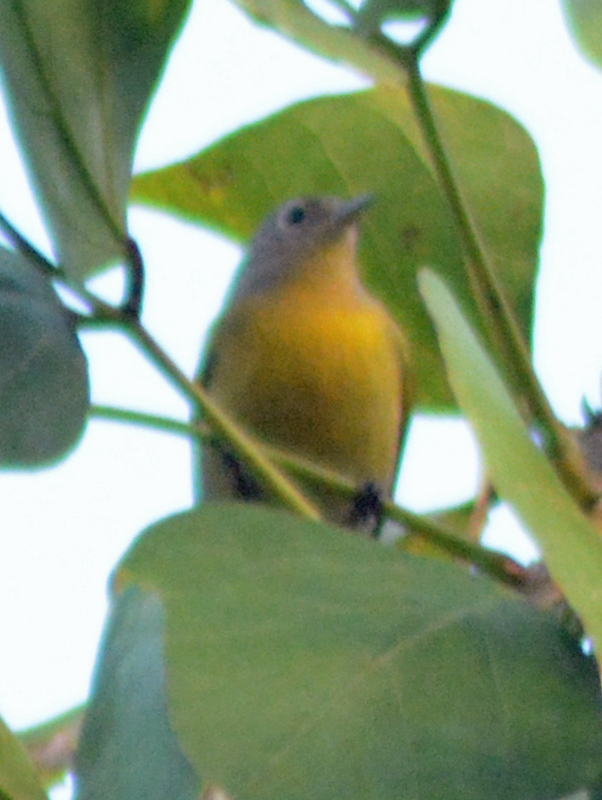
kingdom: Animalia
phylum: Chordata
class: Aves
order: Passeriformes
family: Parulidae
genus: Leiothlypis
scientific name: Leiothlypis ruficapilla
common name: Nashville warbler
